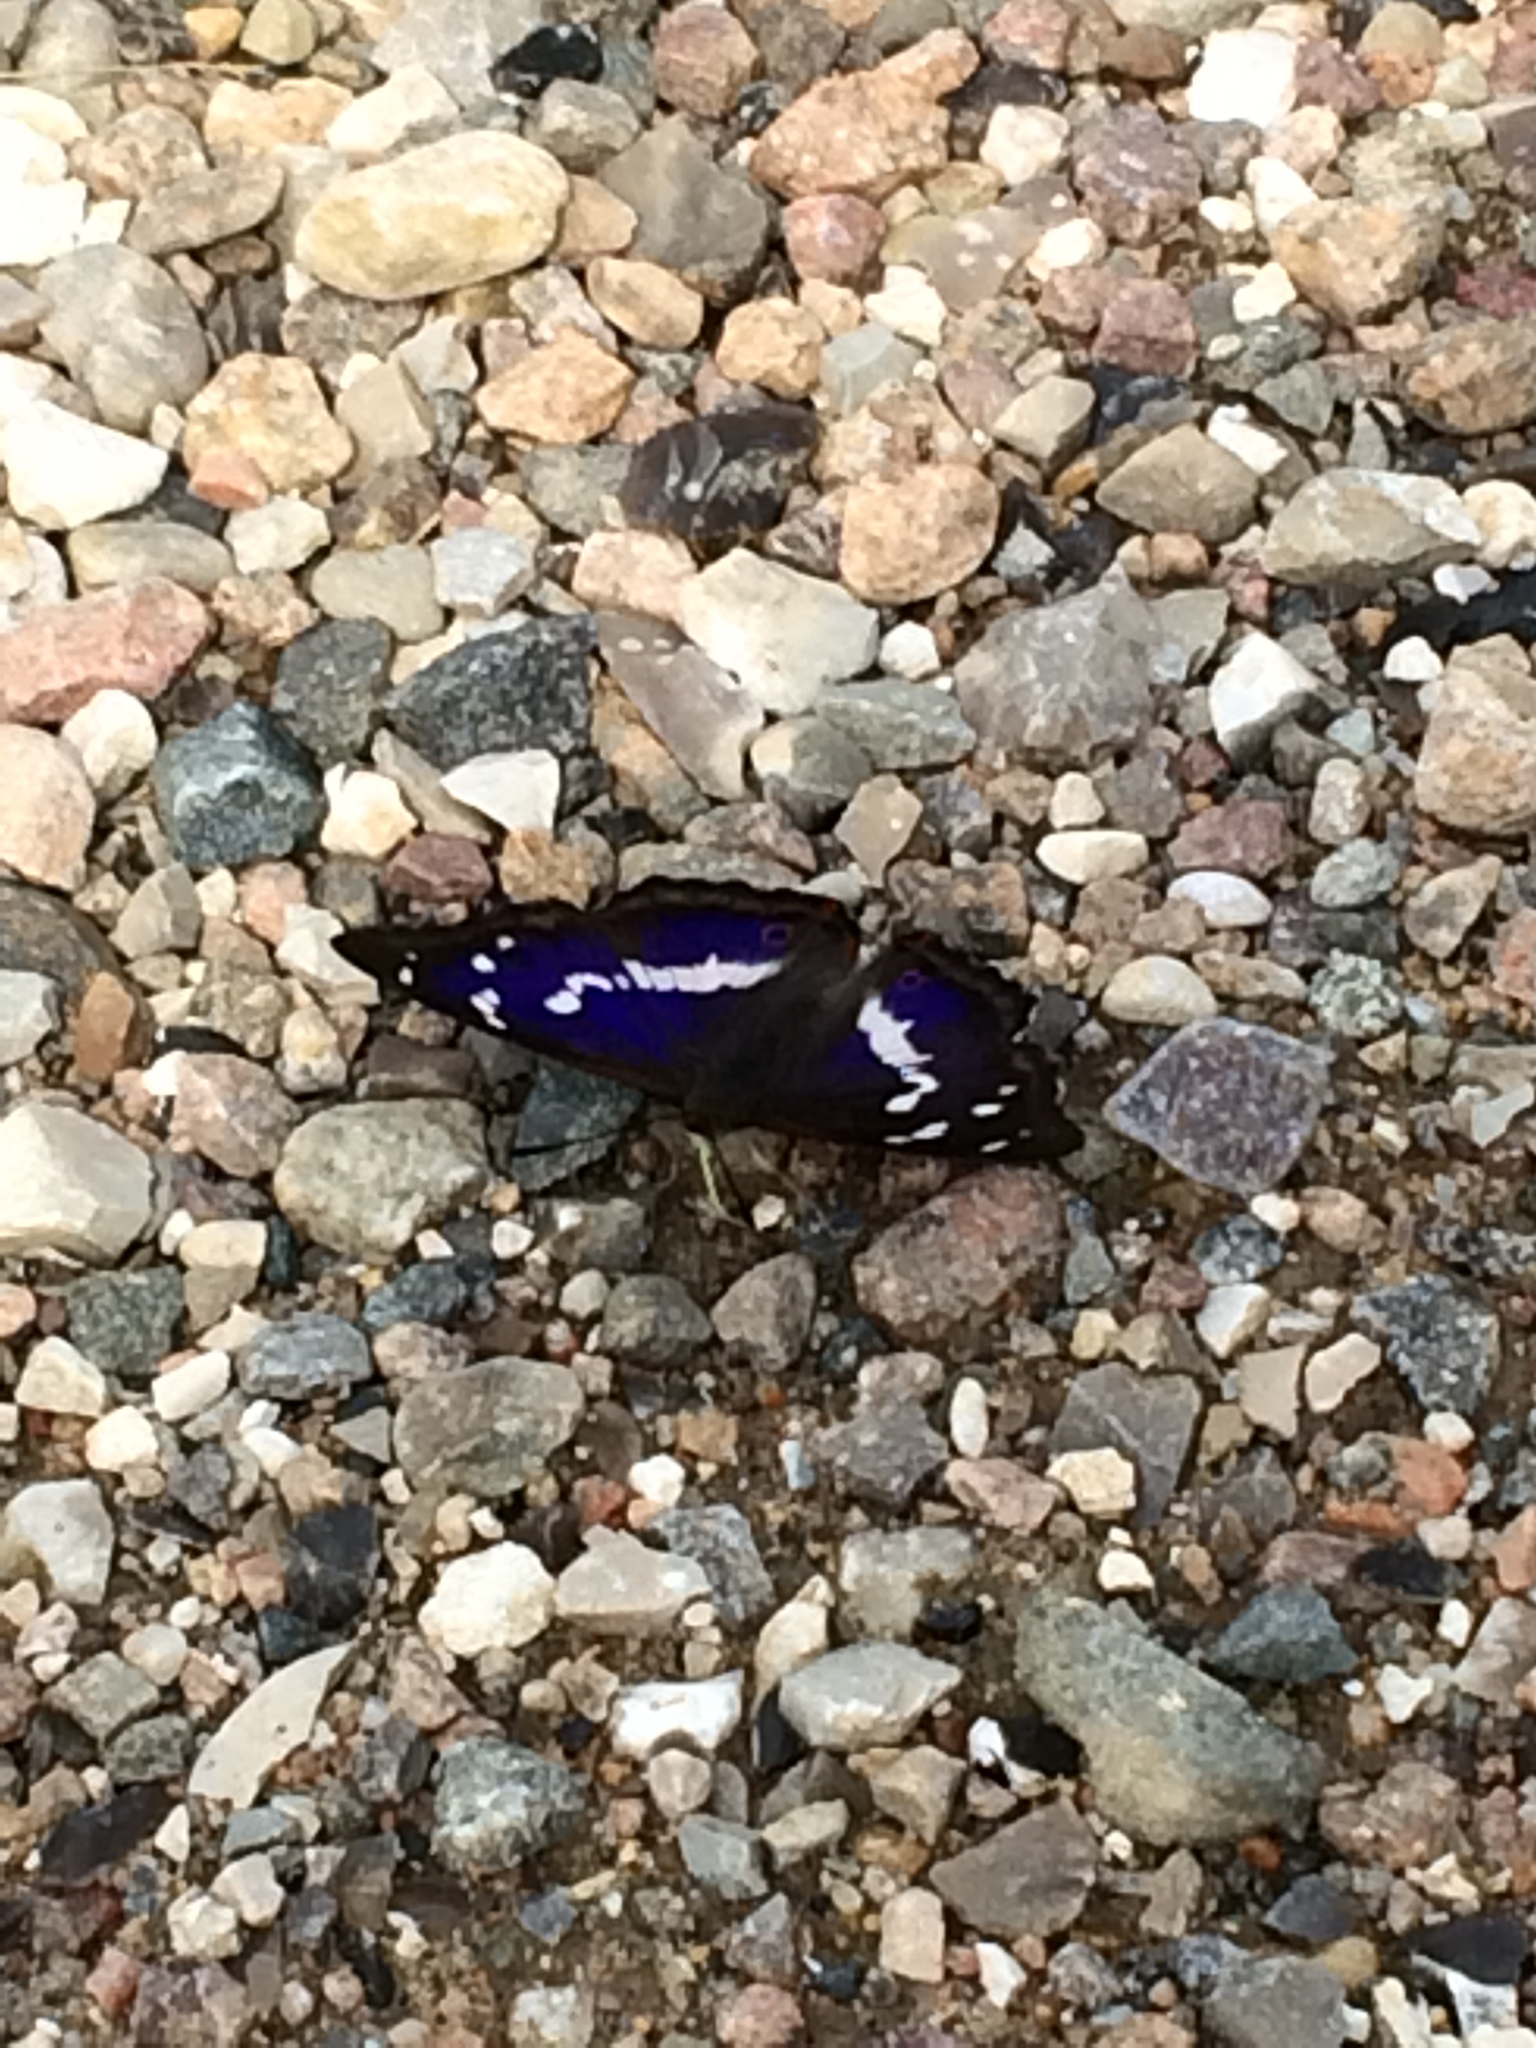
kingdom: Animalia
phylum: Arthropoda
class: Insecta
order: Lepidoptera
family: Nymphalidae
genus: Apatura
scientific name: Apatura iris
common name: Purple emperor
